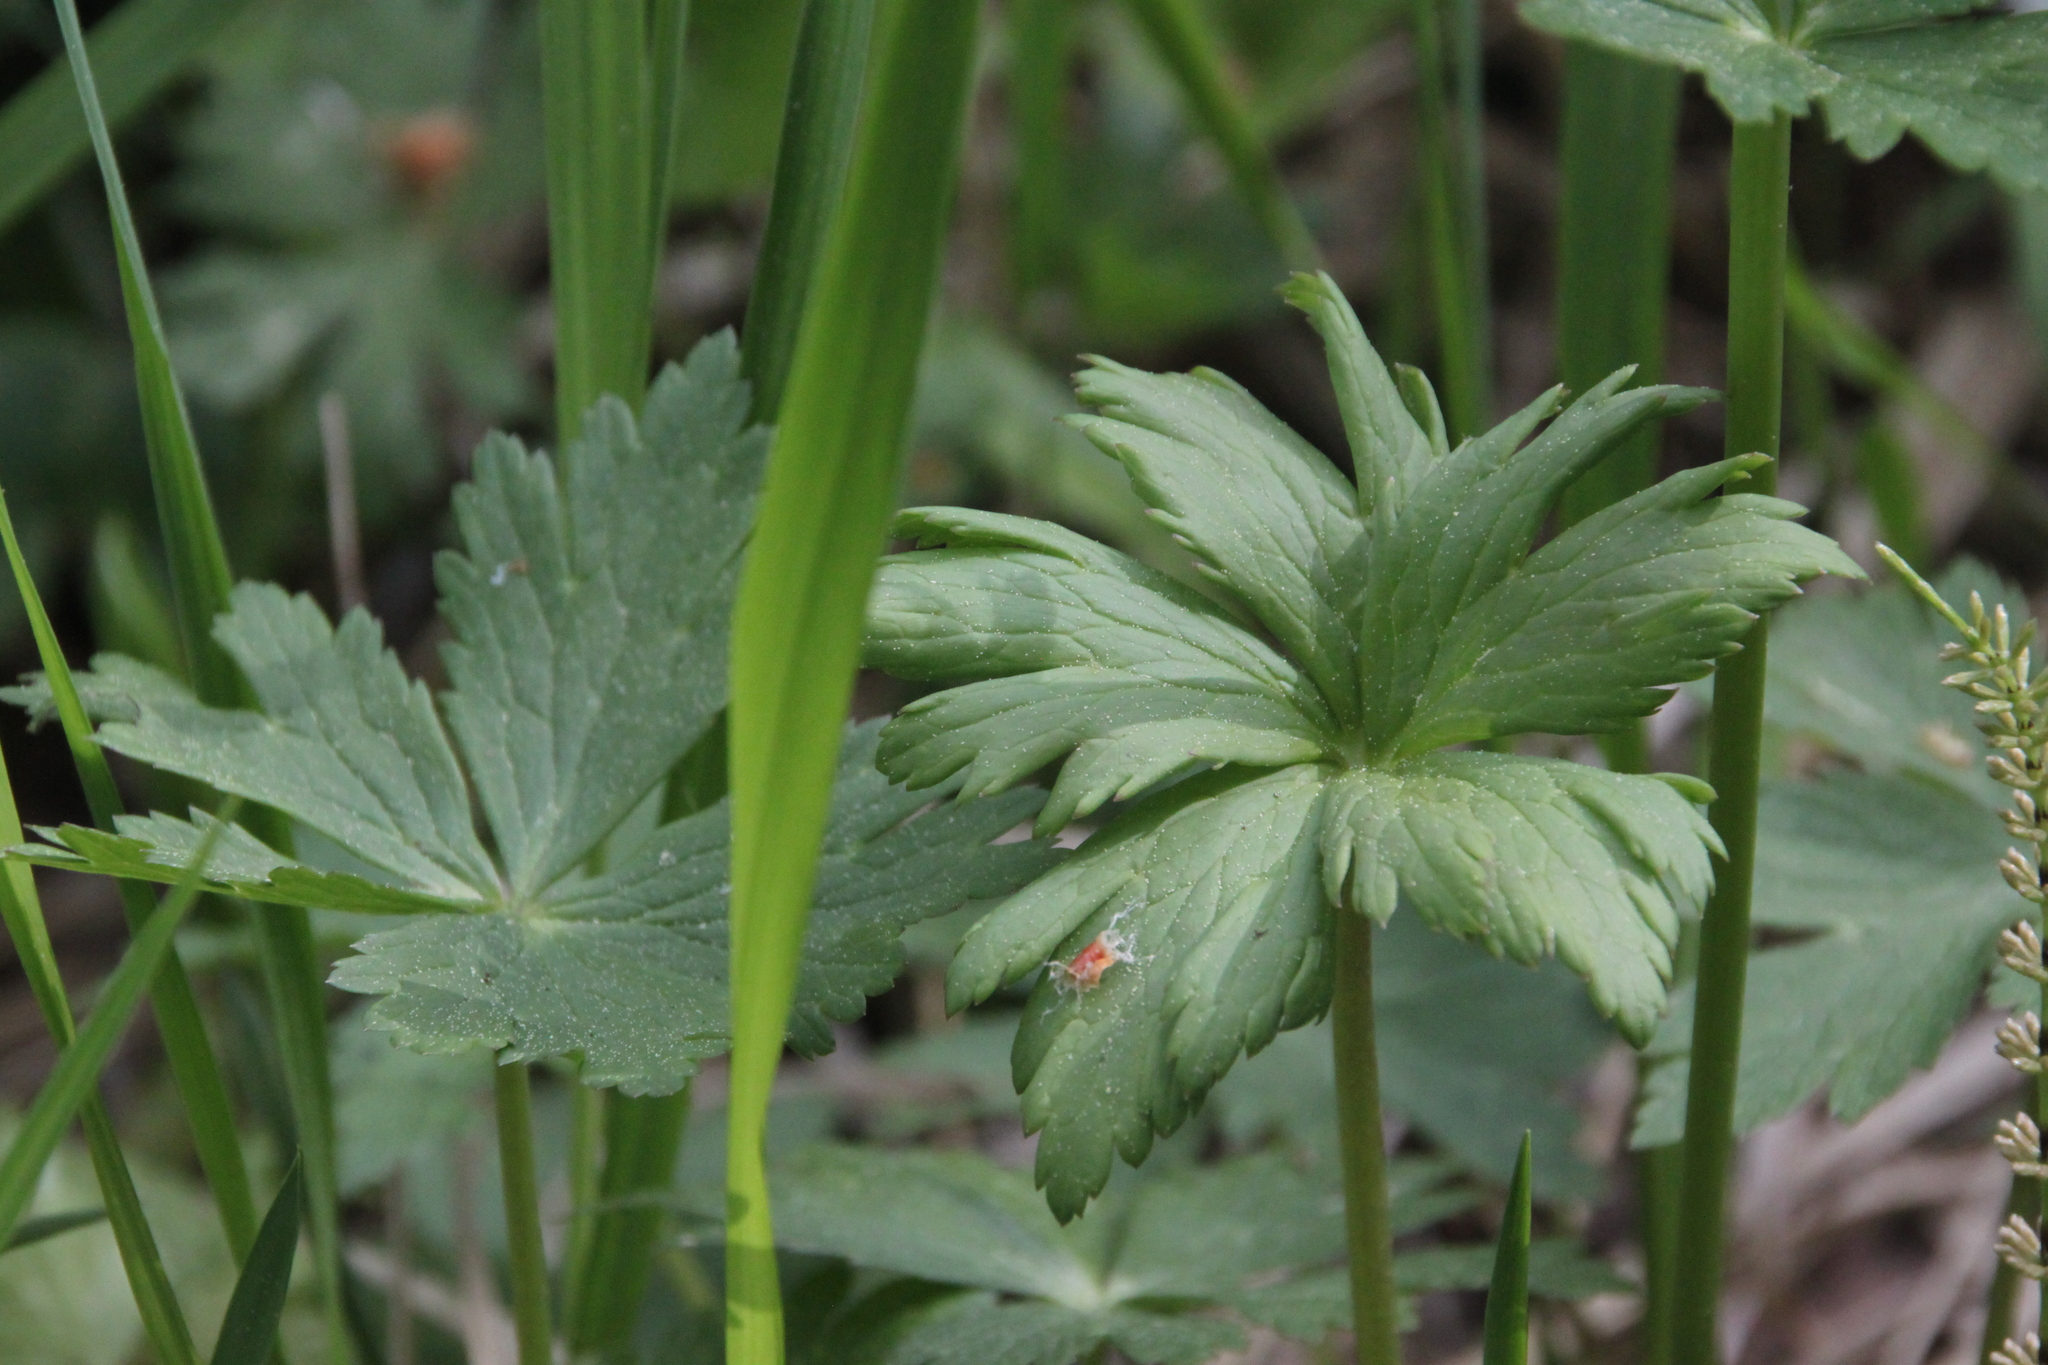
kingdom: Plantae
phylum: Tracheophyta
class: Magnoliopsida
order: Ranunculales
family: Ranunculaceae
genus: Trollius
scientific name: Trollius europaeus
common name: European globeflower
